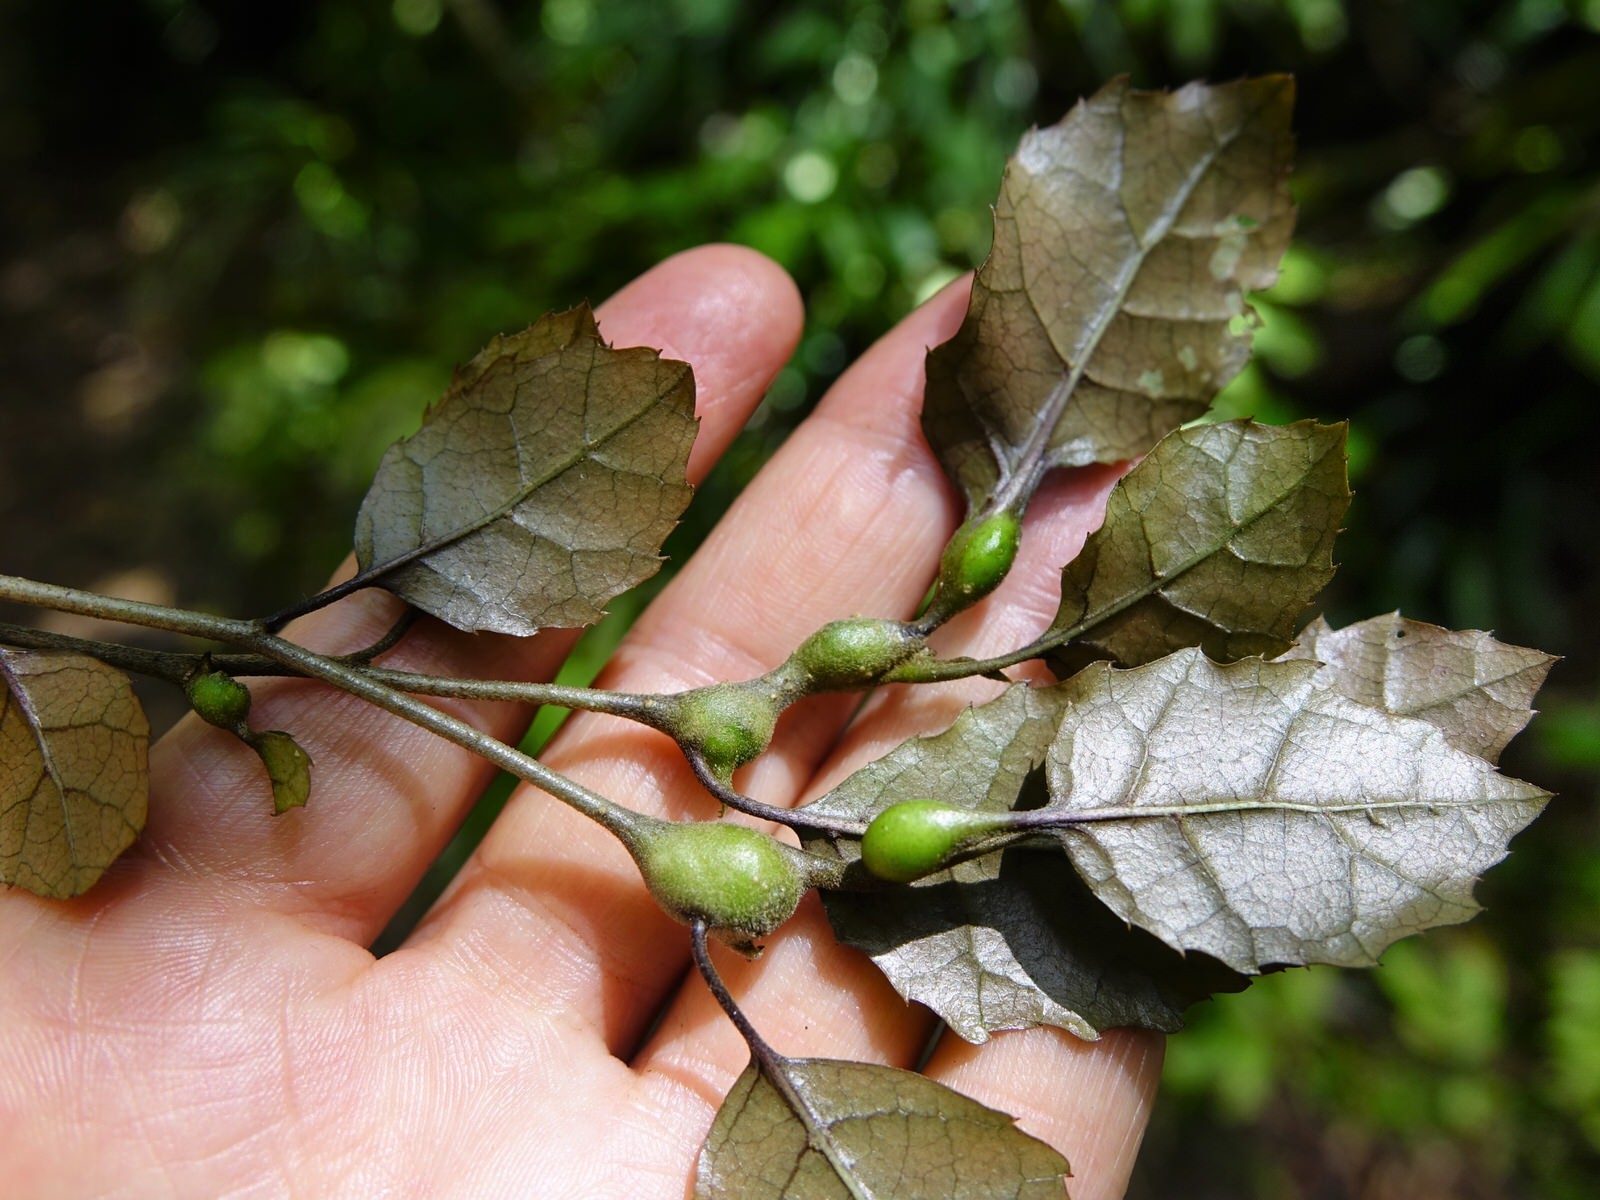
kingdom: Plantae
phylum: Tracheophyta
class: Magnoliopsida
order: Asterales
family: Rousseaceae
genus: Carpodetus
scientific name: Carpodetus serratus
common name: White mapau
